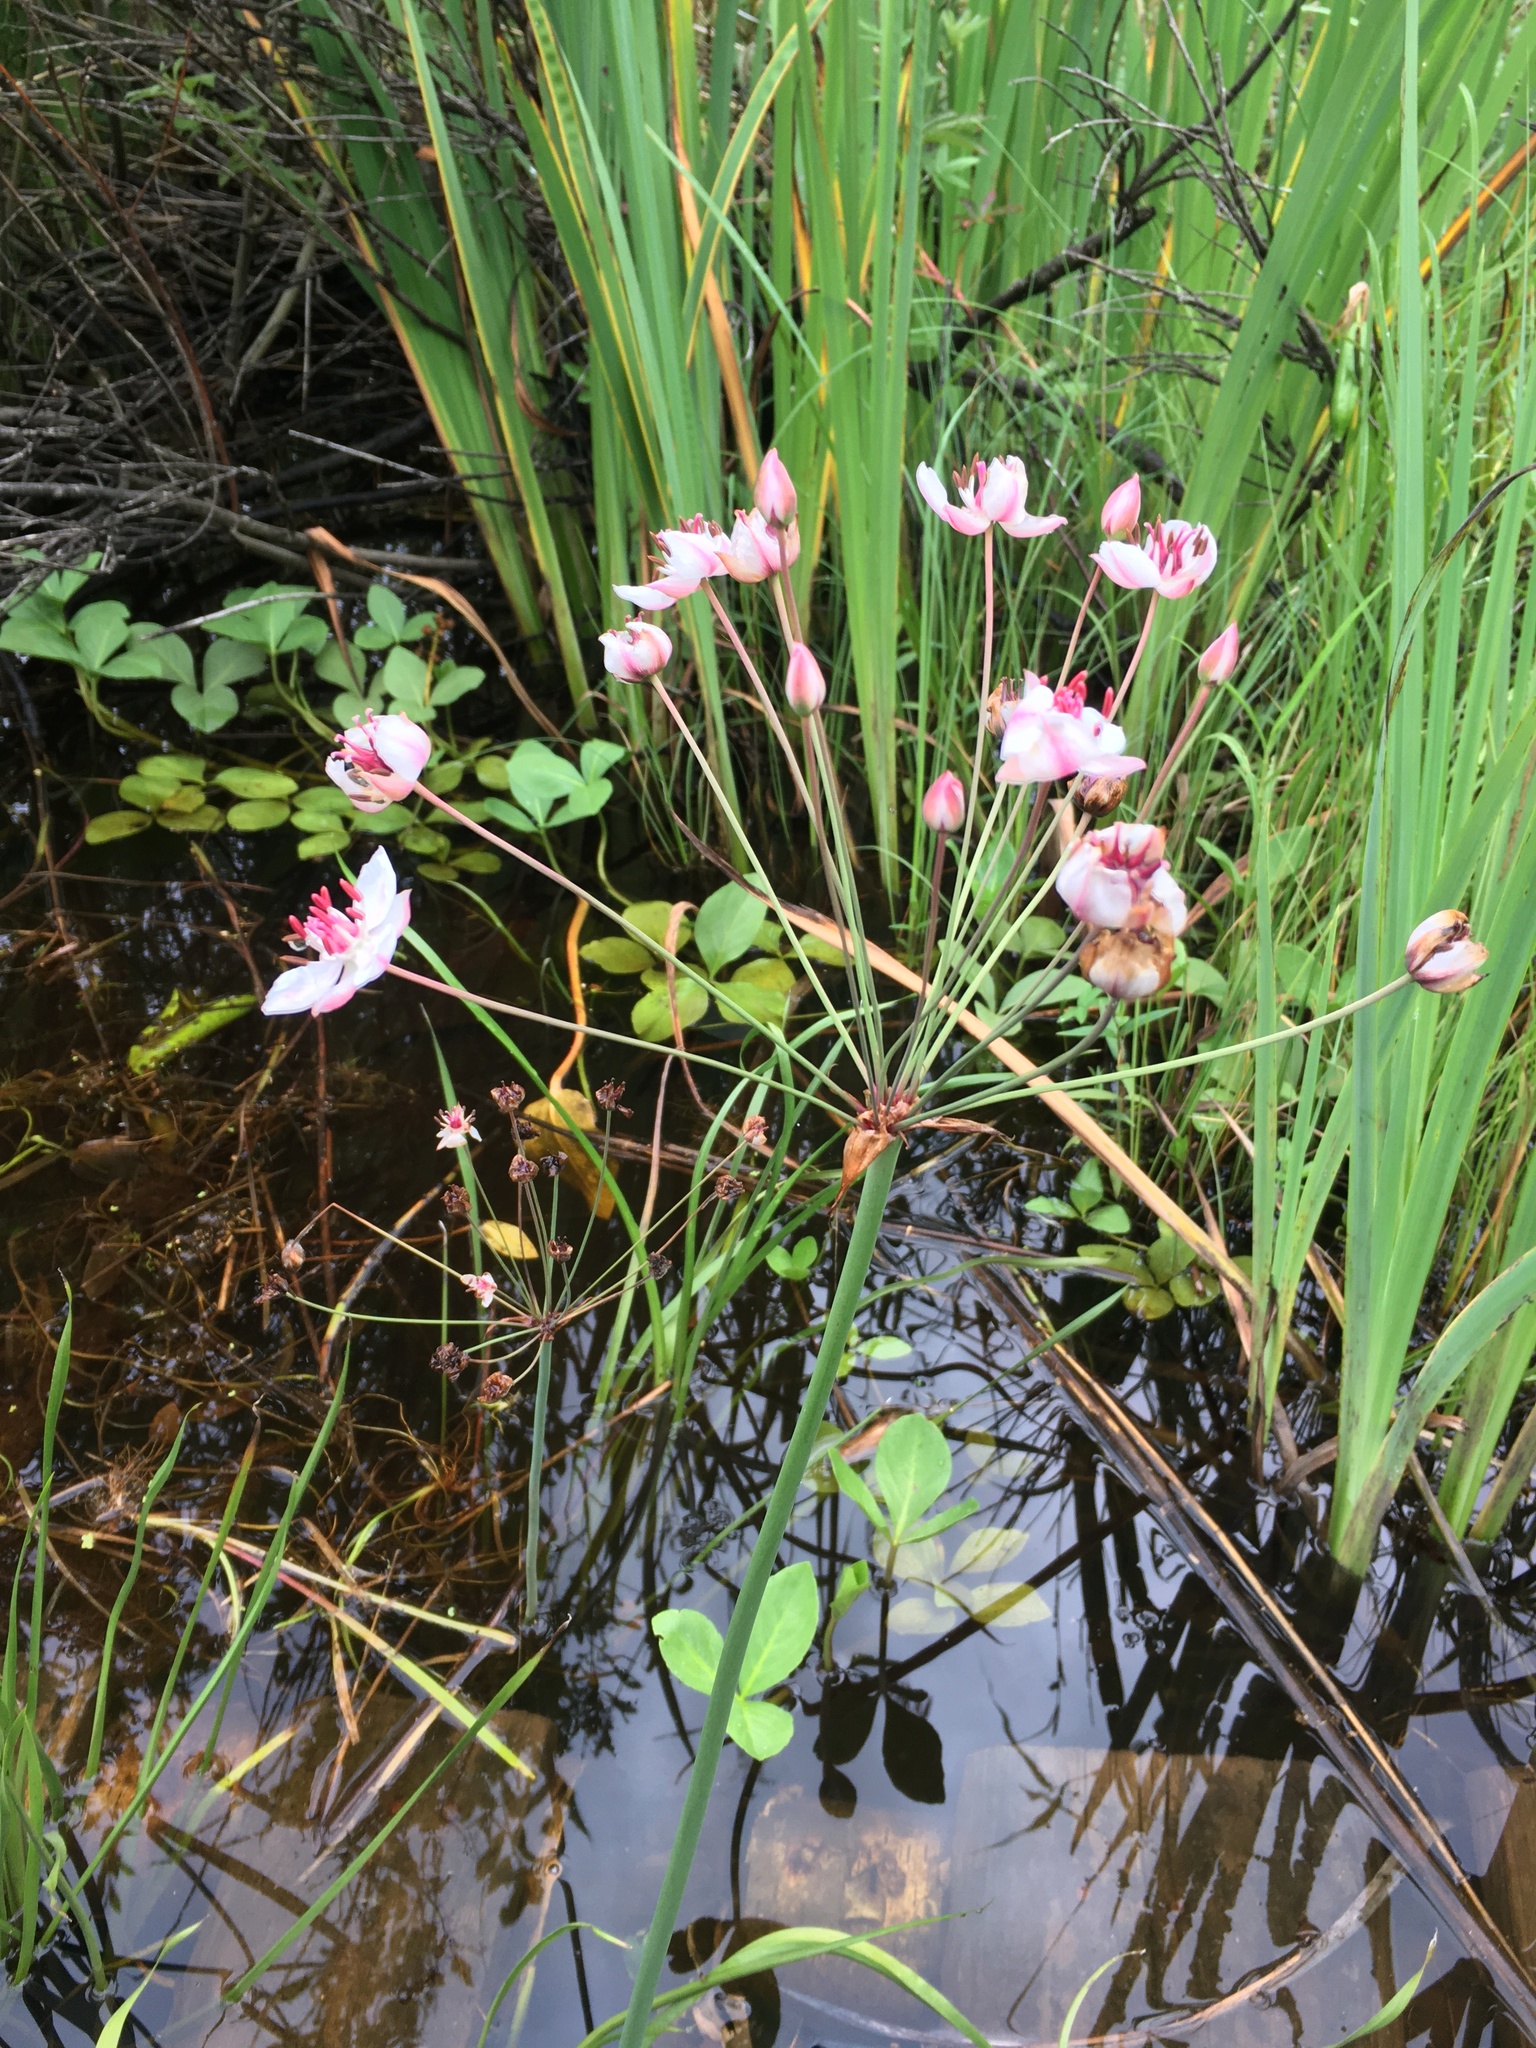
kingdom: Plantae
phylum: Tracheophyta
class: Liliopsida
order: Alismatales
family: Butomaceae
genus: Butomus
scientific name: Butomus umbellatus
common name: Flowering-rush
